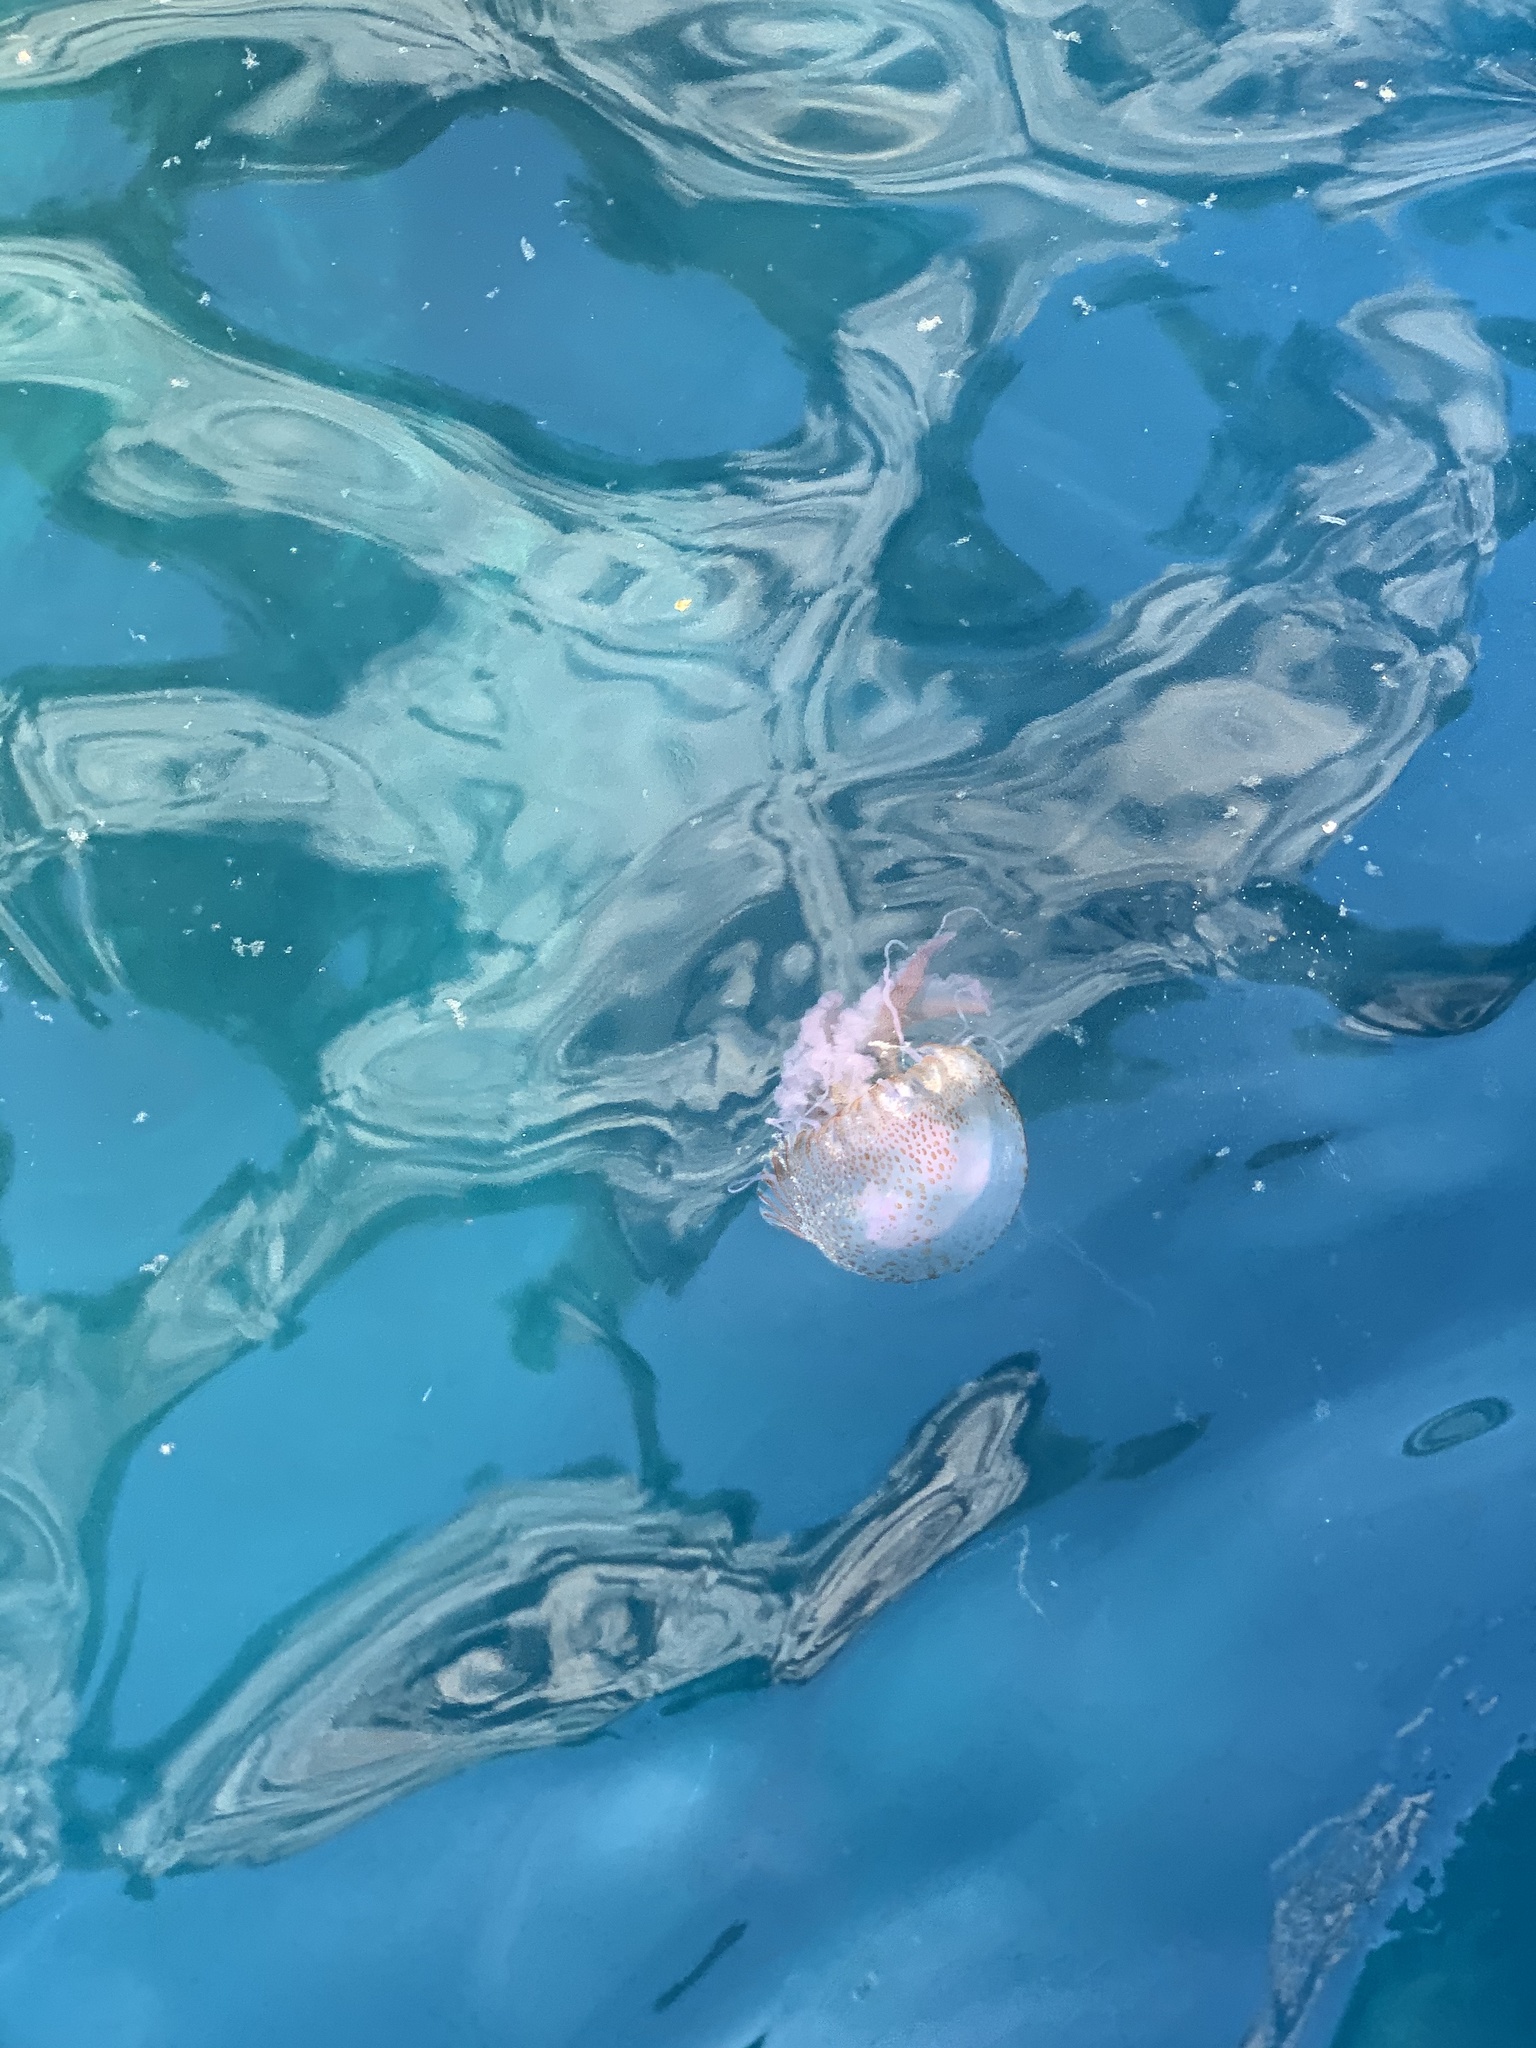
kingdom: Animalia
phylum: Cnidaria
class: Scyphozoa
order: Semaeostomeae
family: Pelagiidae
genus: Pelagia
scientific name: Pelagia noctiluca
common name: Mauve stinger
